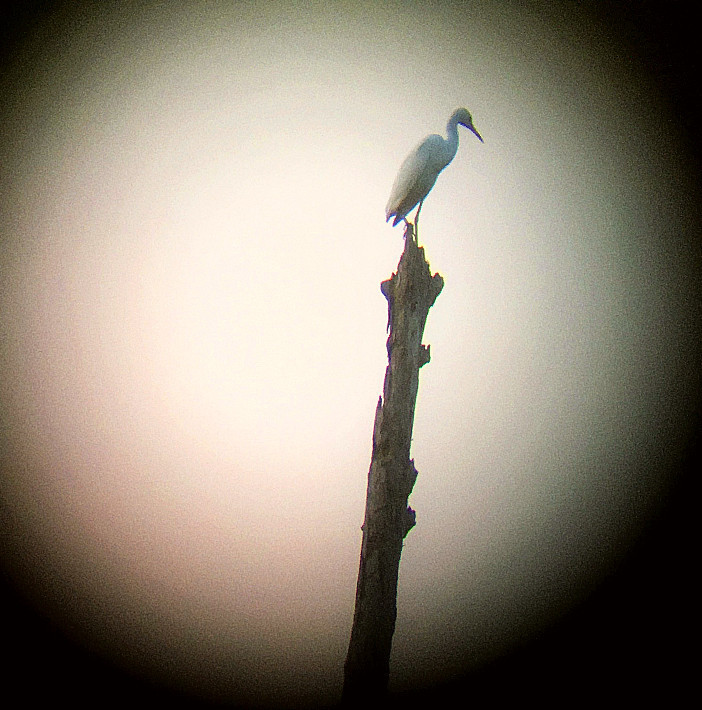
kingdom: Animalia
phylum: Chordata
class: Aves
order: Pelecaniformes
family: Ardeidae
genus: Egretta
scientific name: Egretta caerulea
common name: Little blue heron
